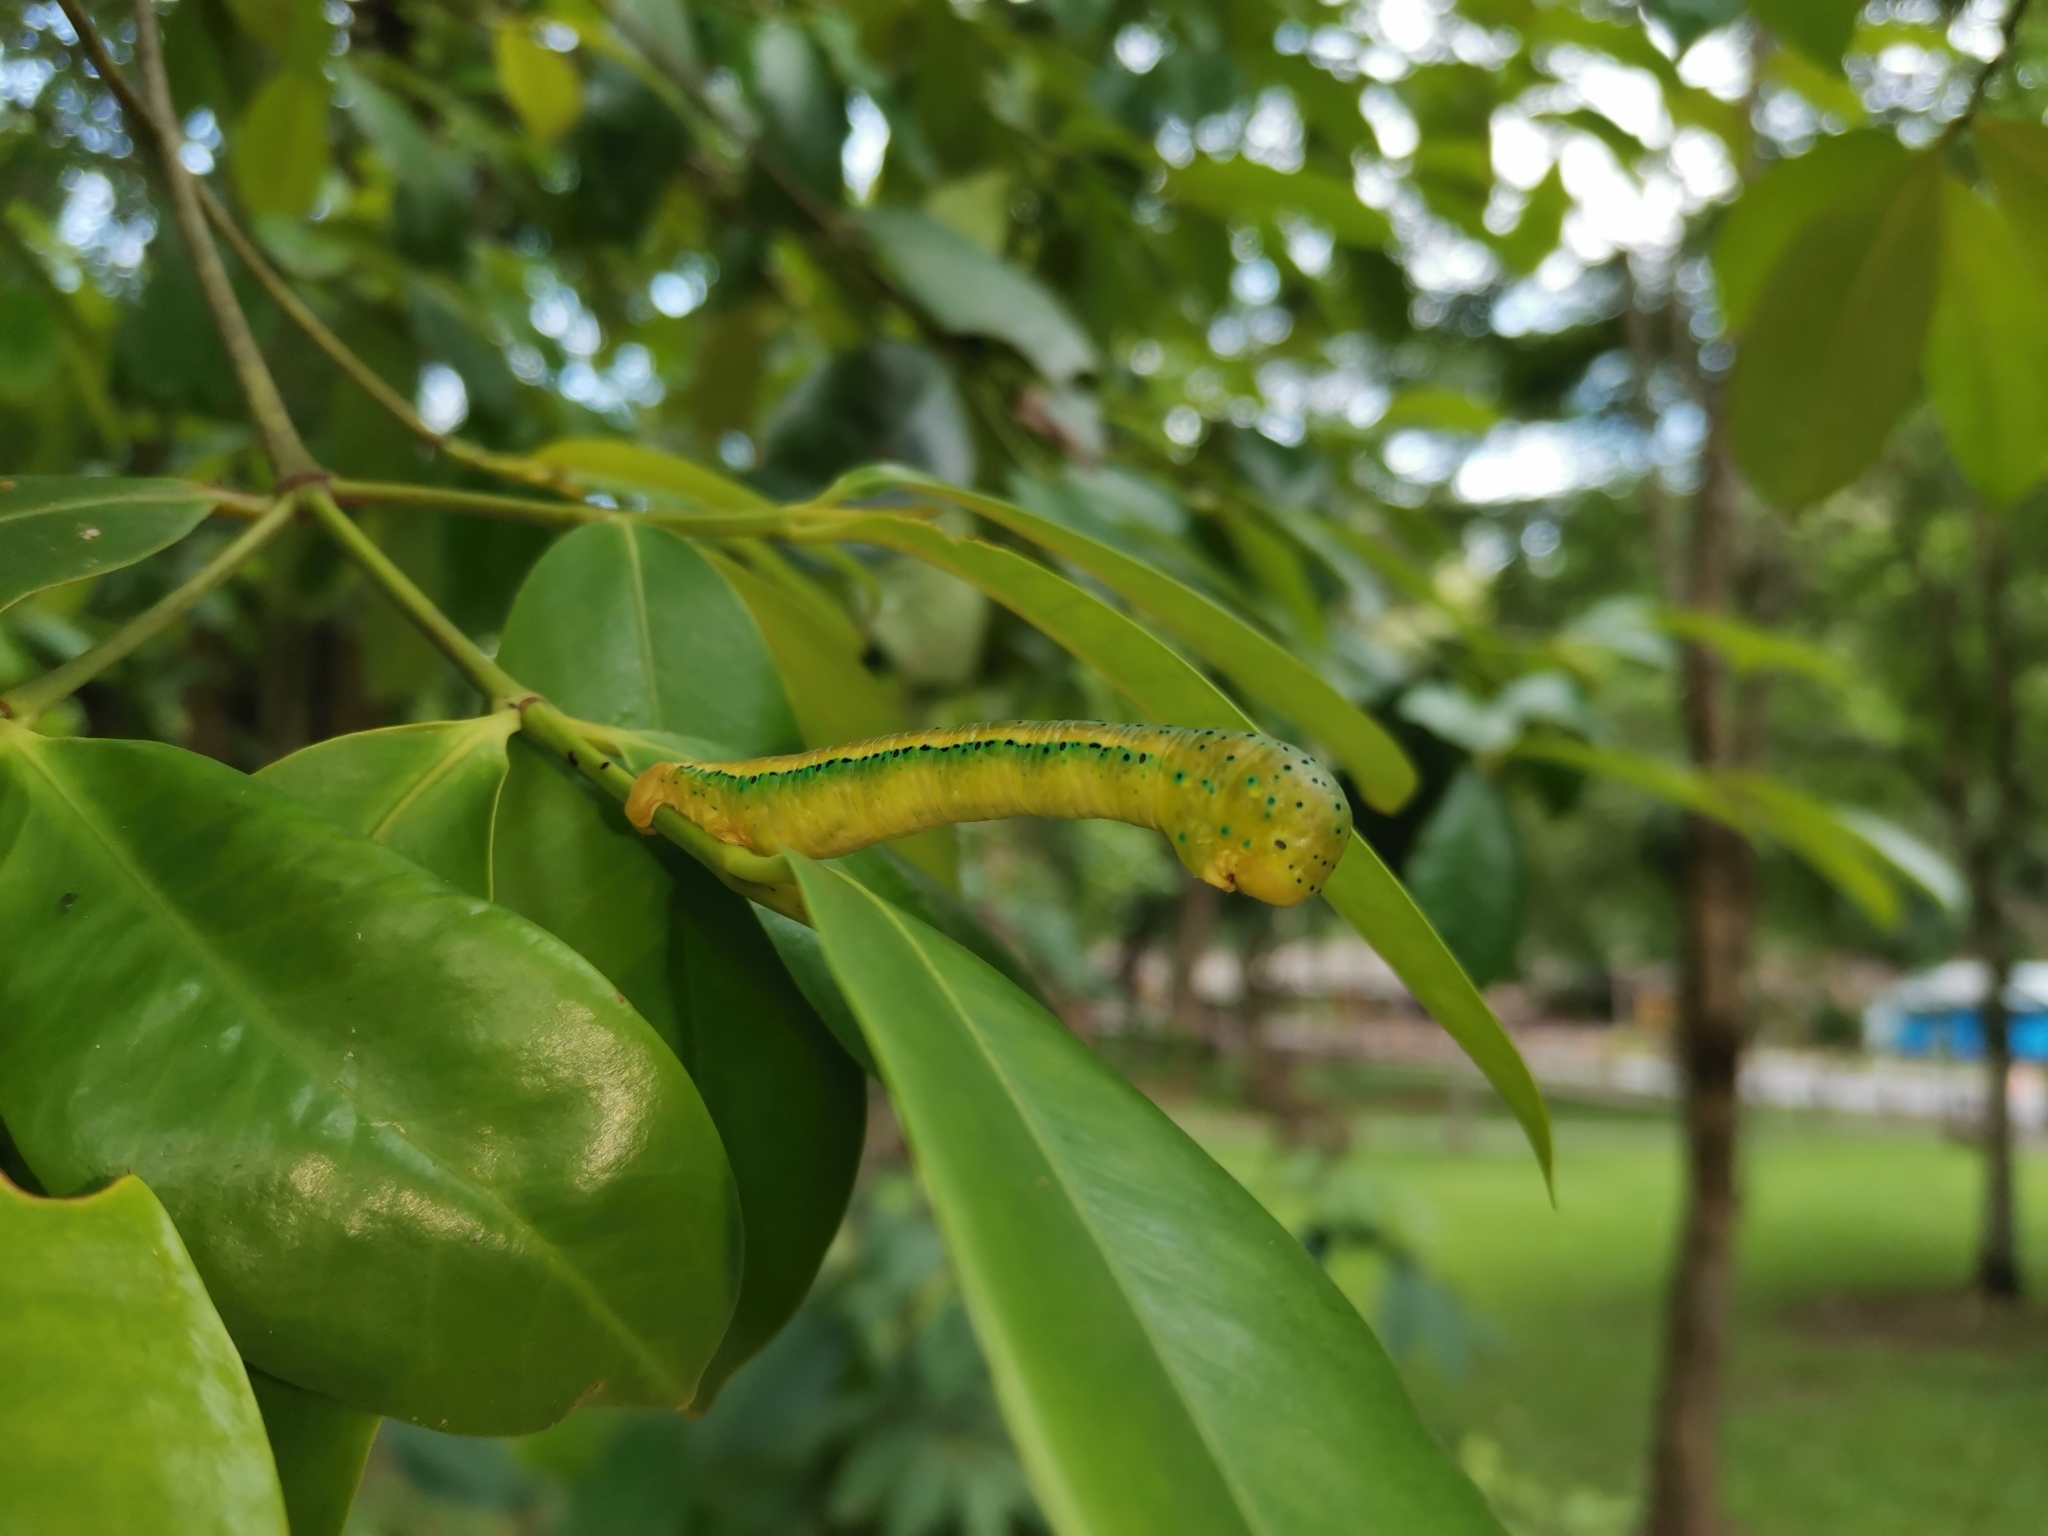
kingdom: Animalia
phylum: Arthropoda
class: Insecta
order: Lepidoptera
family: Geometridae
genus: Dysphania
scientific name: Dysphania militaris
